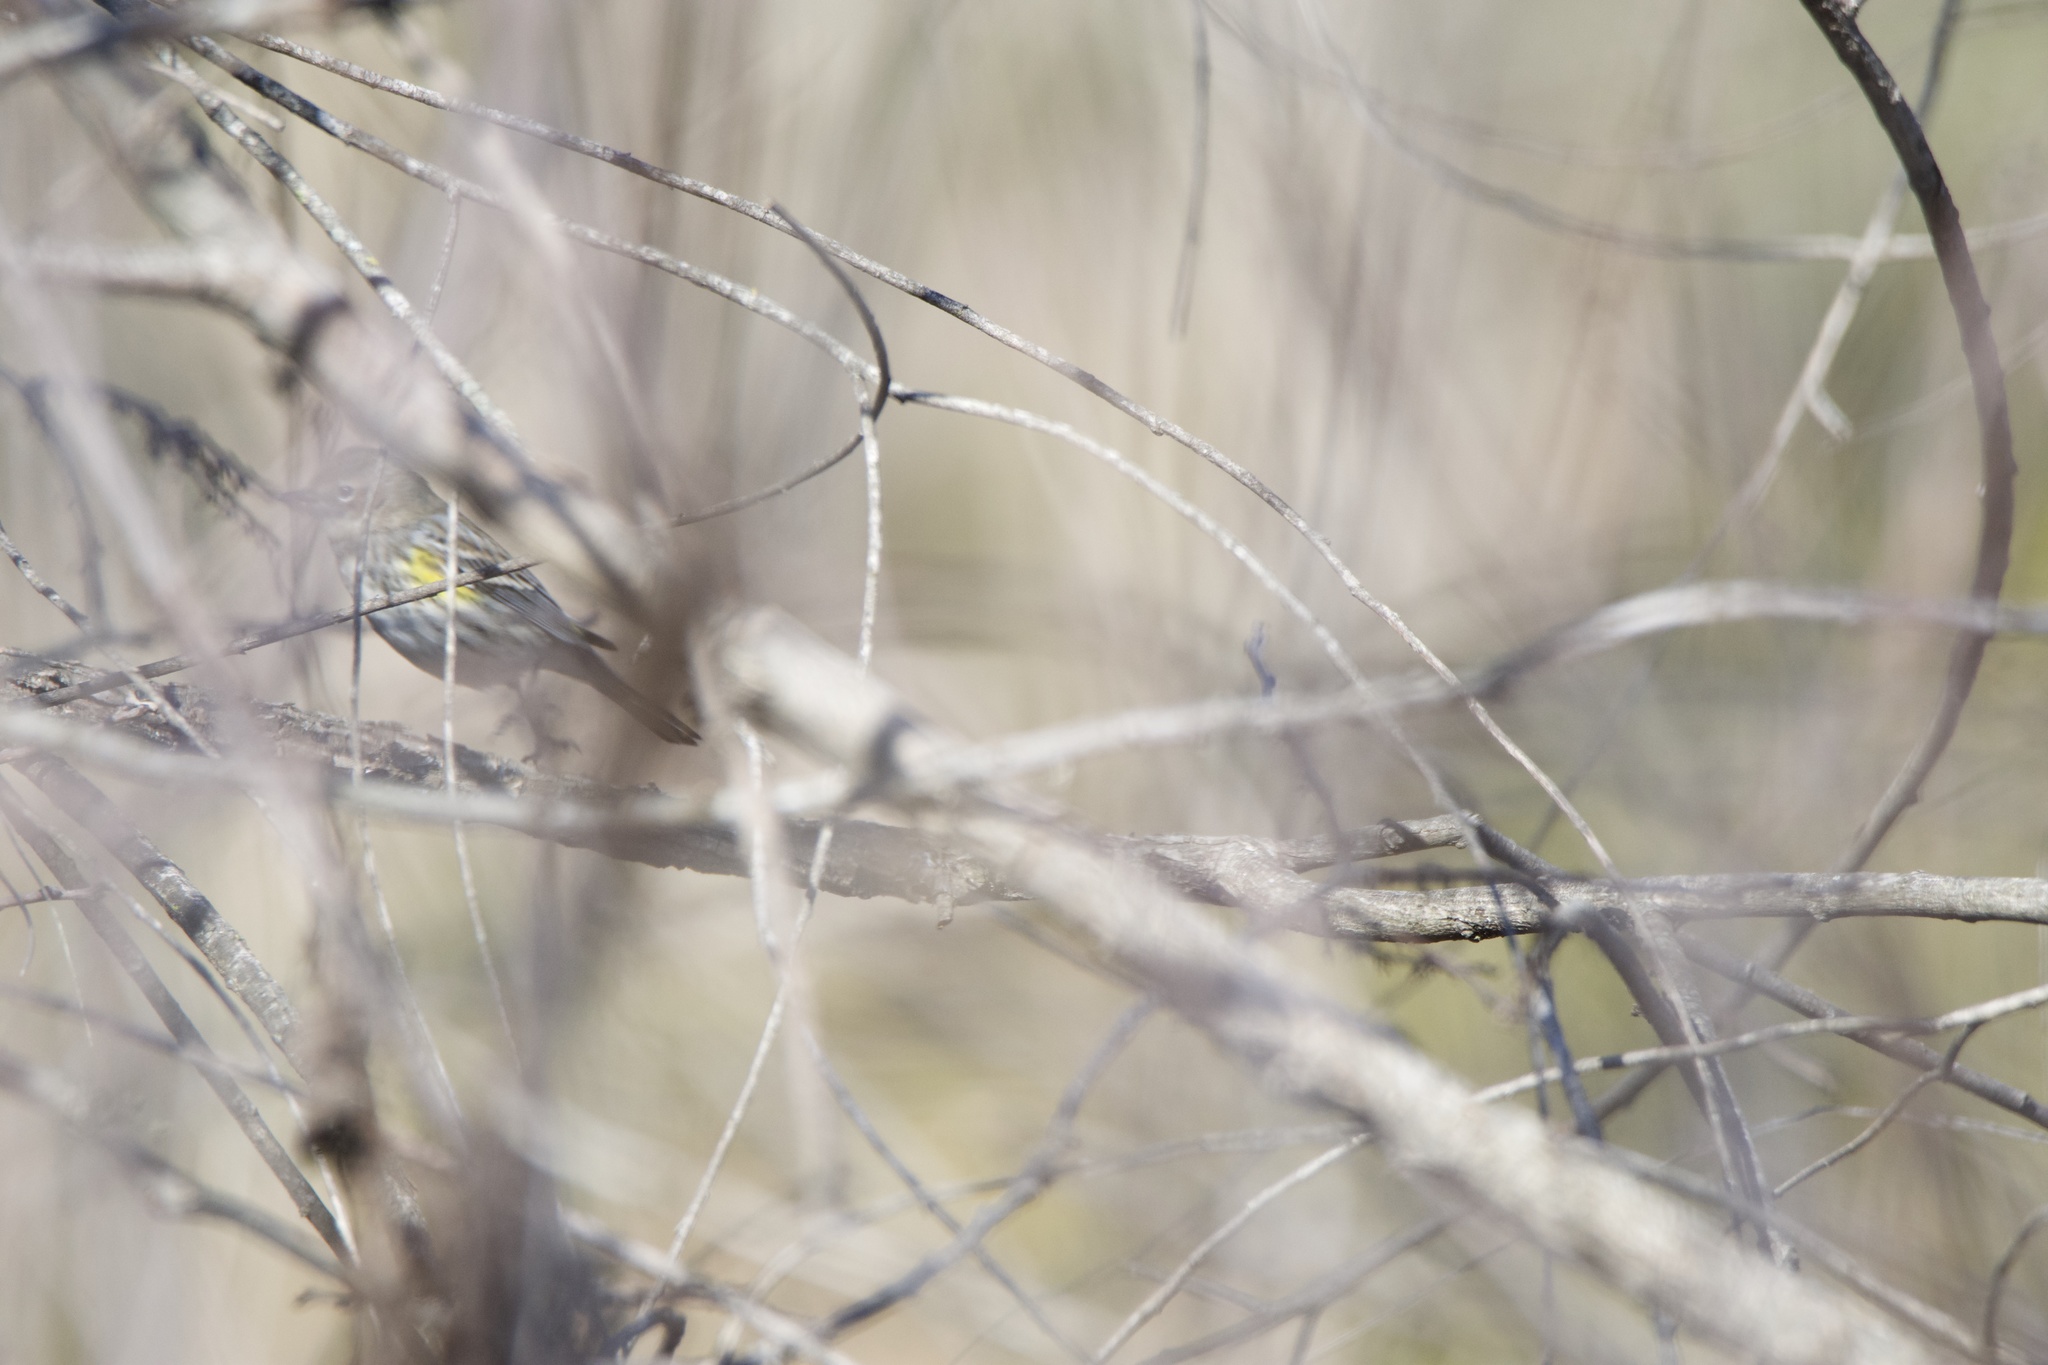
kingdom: Animalia
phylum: Chordata
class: Aves
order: Passeriformes
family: Parulidae
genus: Setophaga
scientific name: Setophaga coronata
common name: Myrtle warbler
